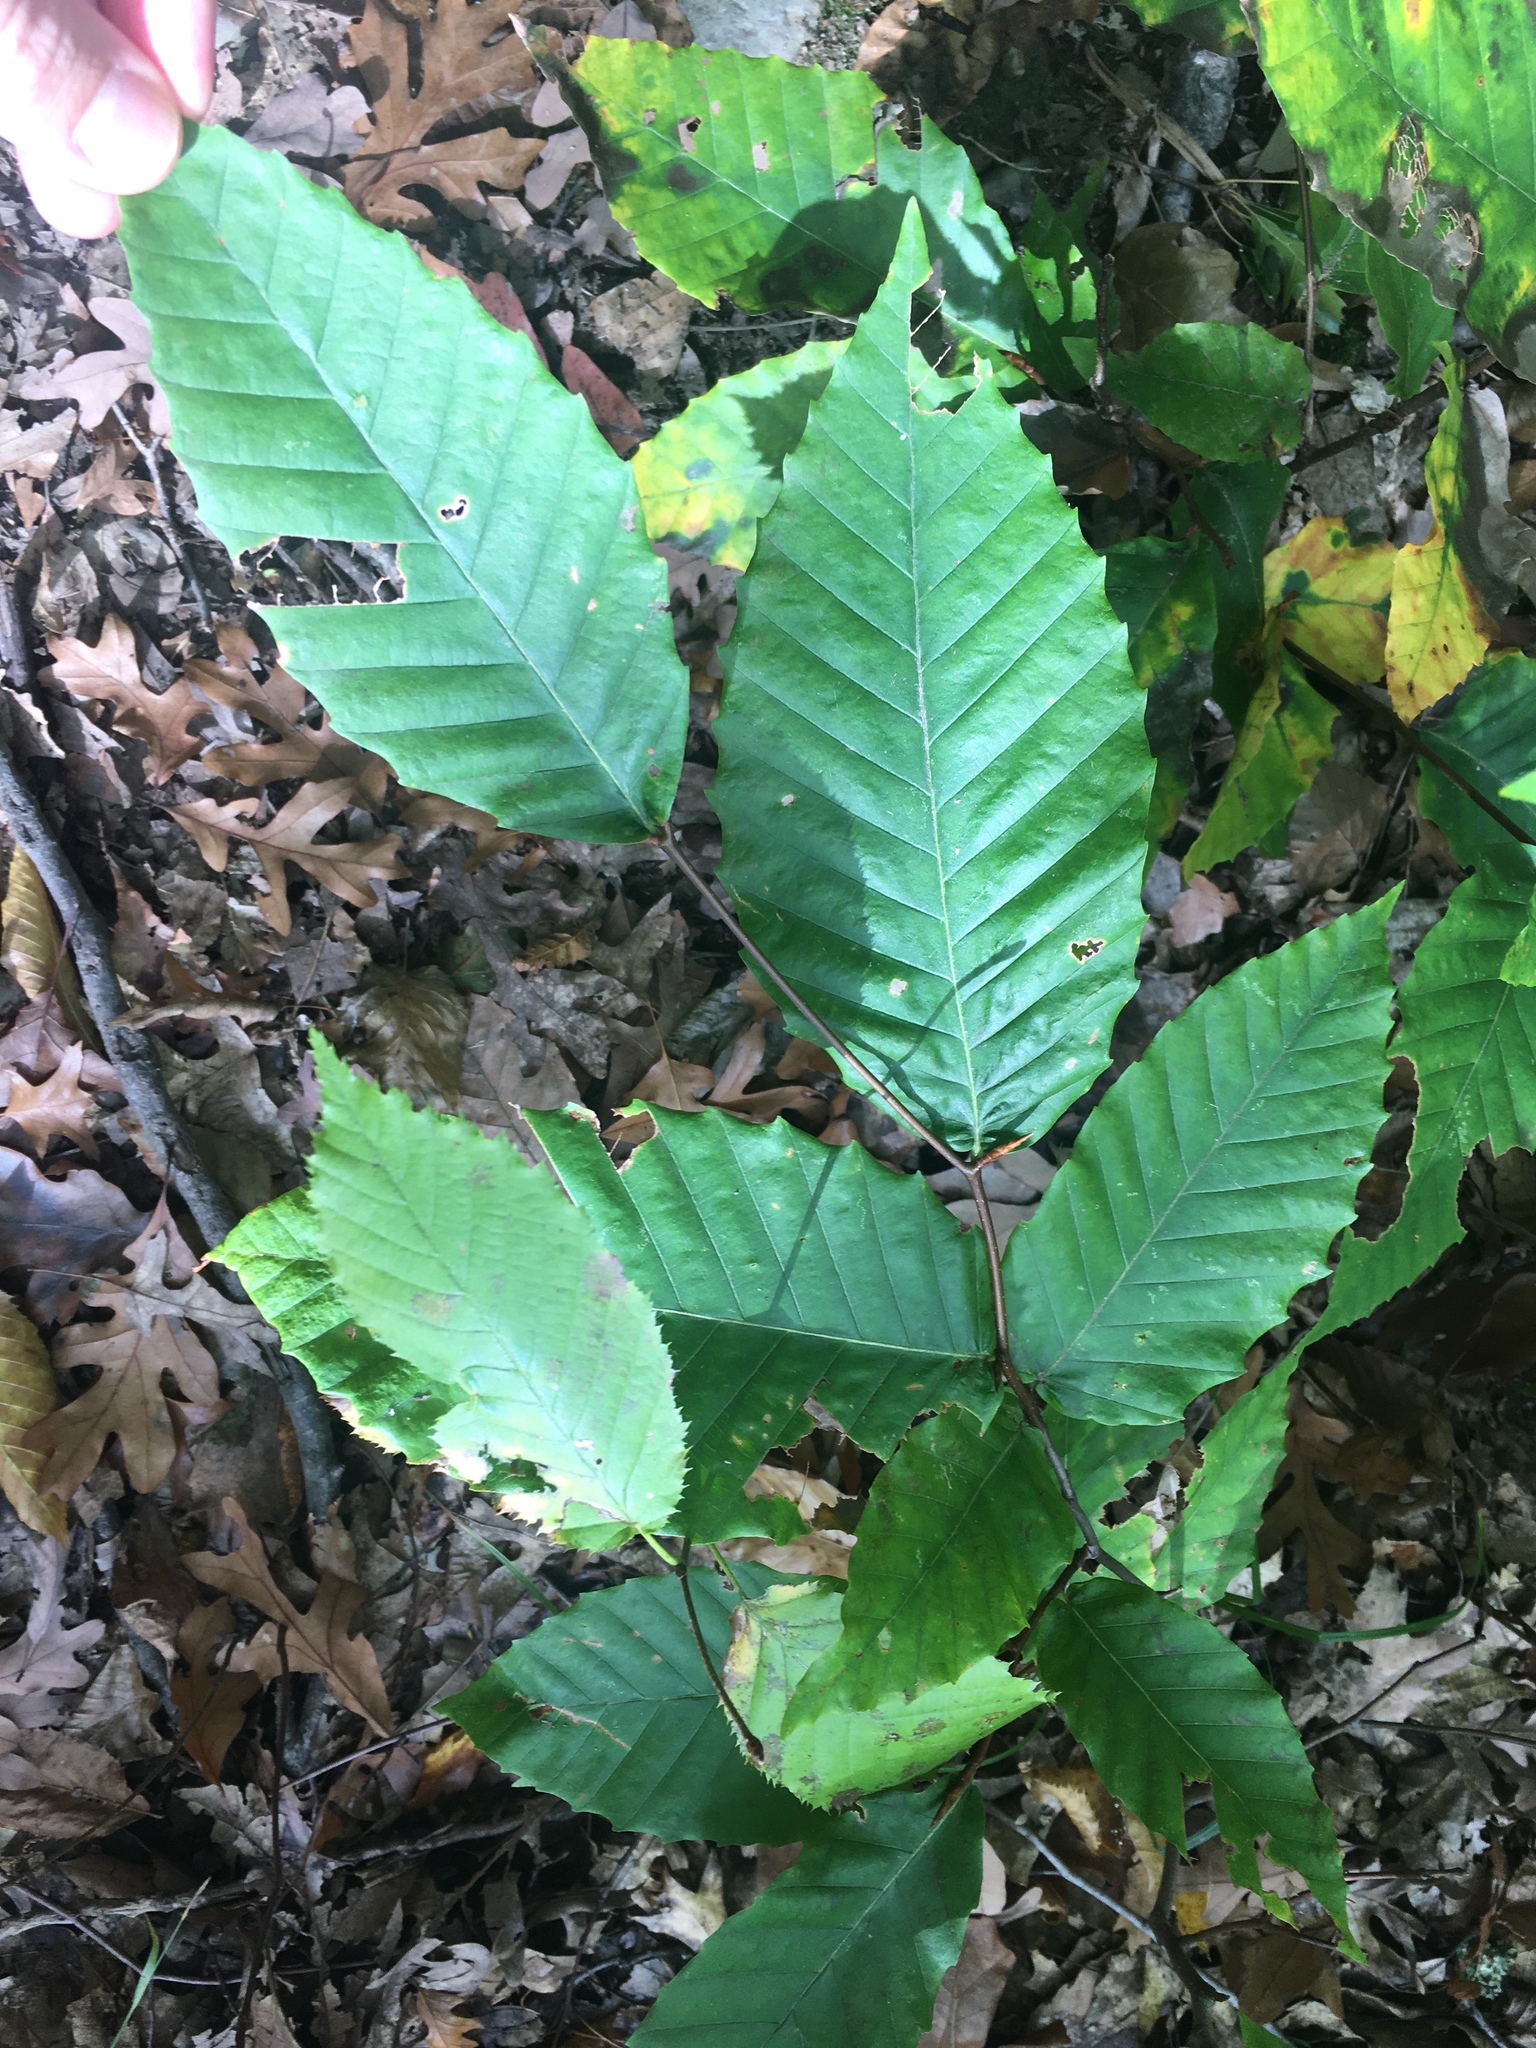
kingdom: Plantae
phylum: Tracheophyta
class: Magnoliopsida
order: Fagales
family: Fagaceae
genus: Fagus
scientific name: Fagus grandifolia
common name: American beech
